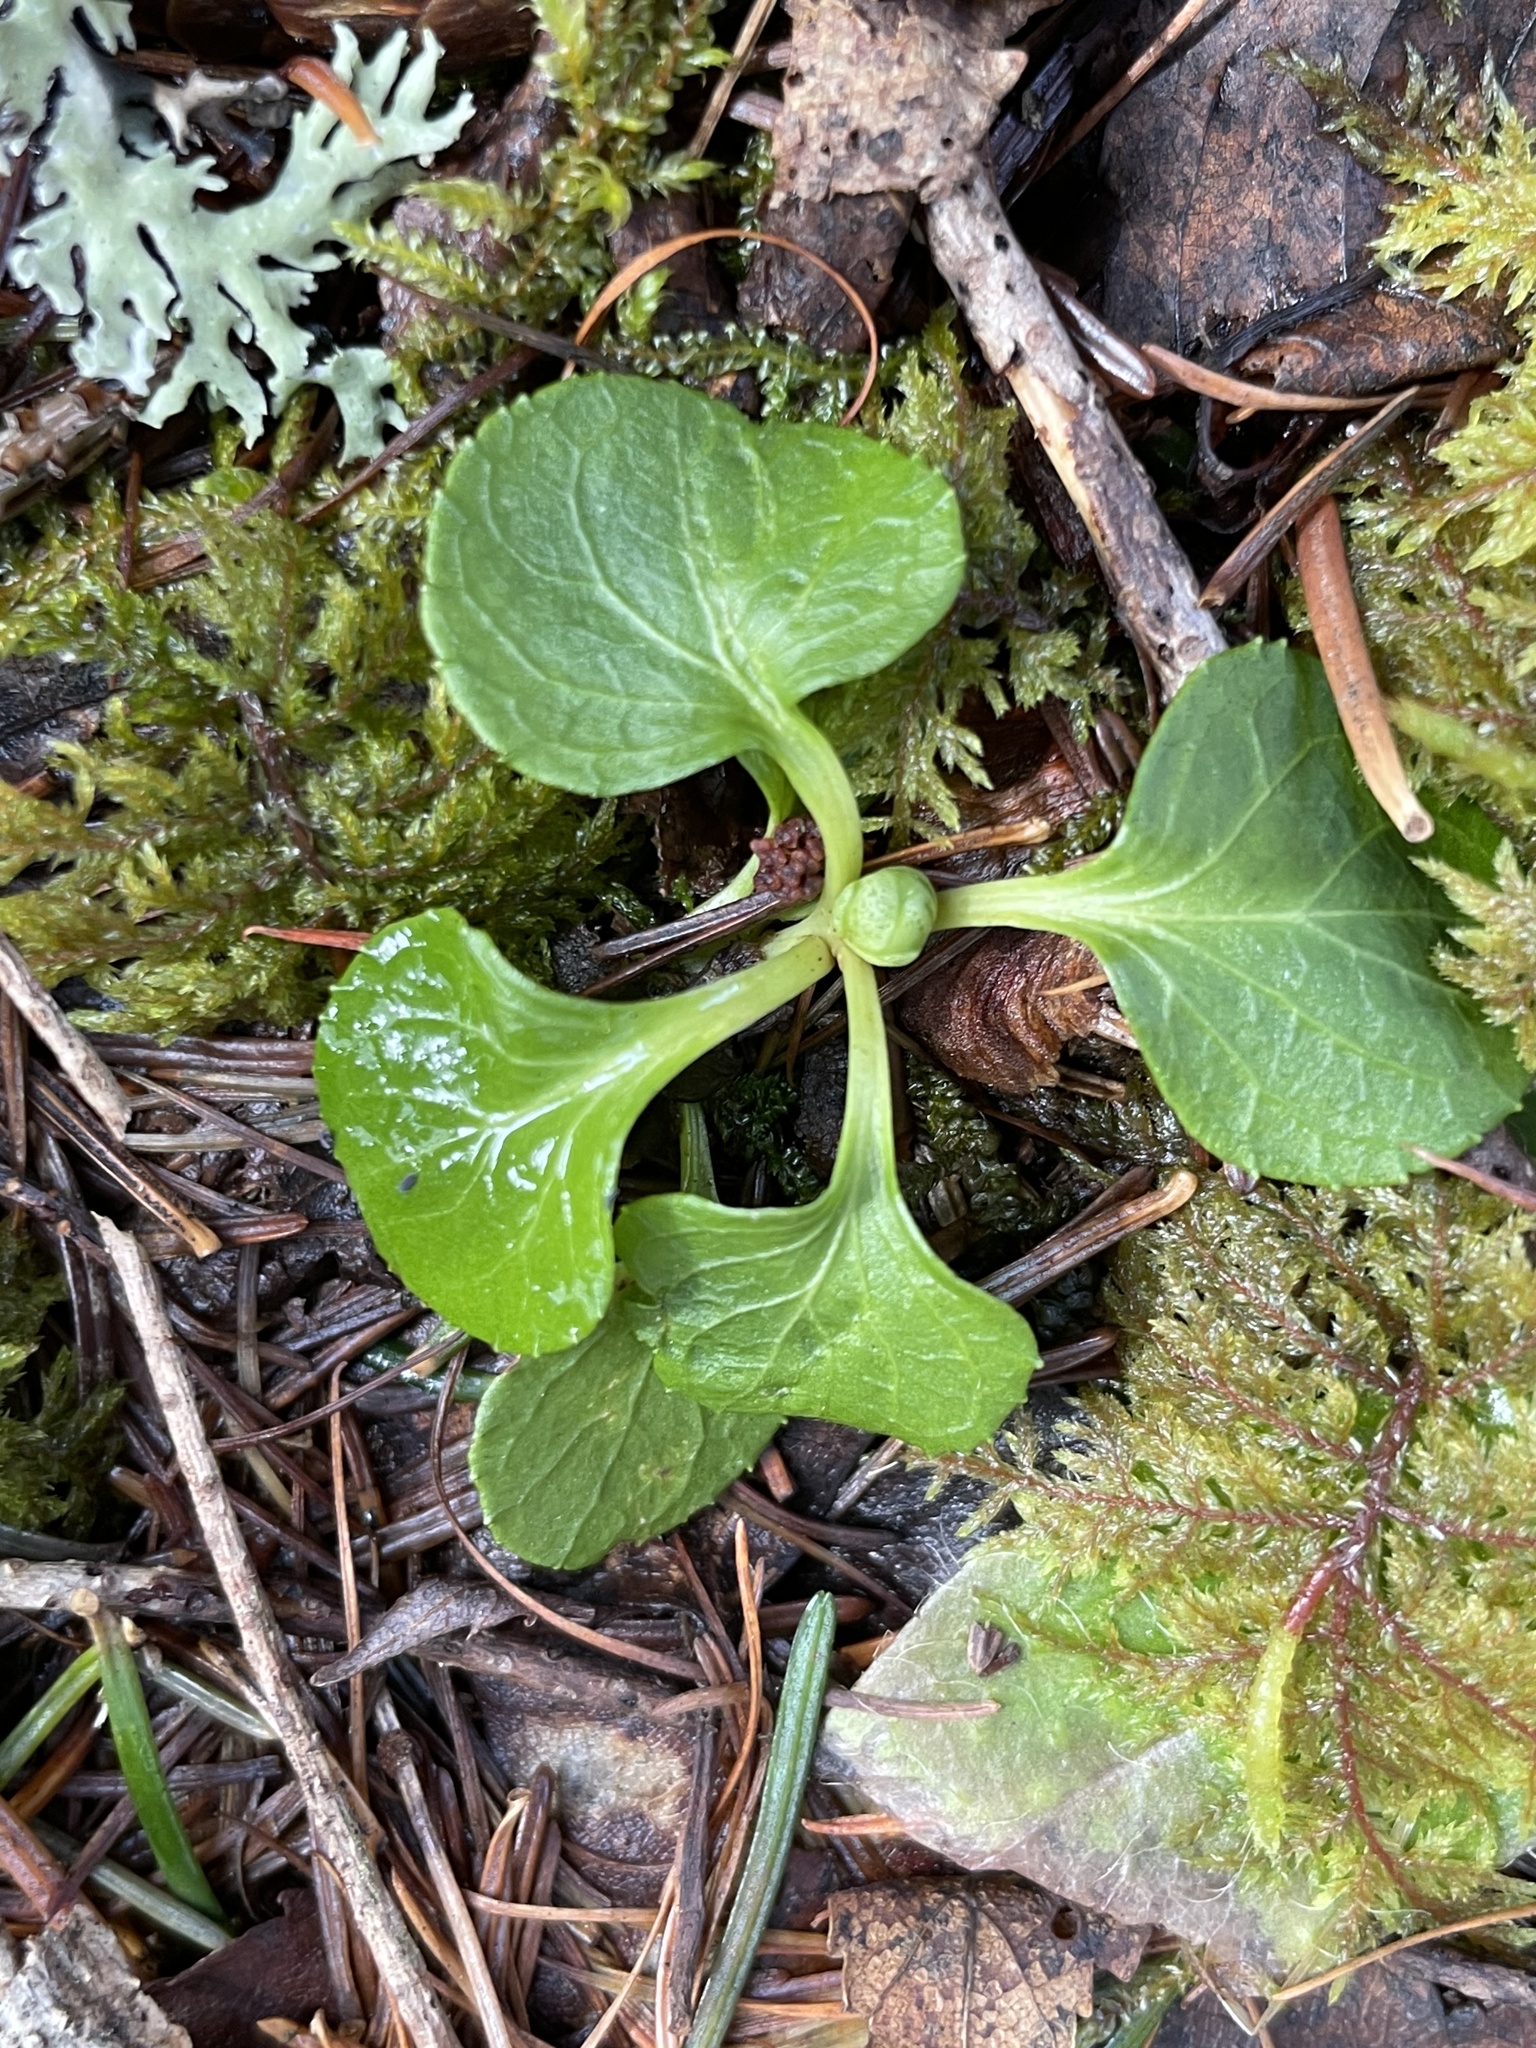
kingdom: Plantae
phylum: Tracheophyta
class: Magnoliopsida
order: Ericales
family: Ericaceae
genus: Moneses
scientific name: Moneses uniflora
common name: One-flowered wintergreen
